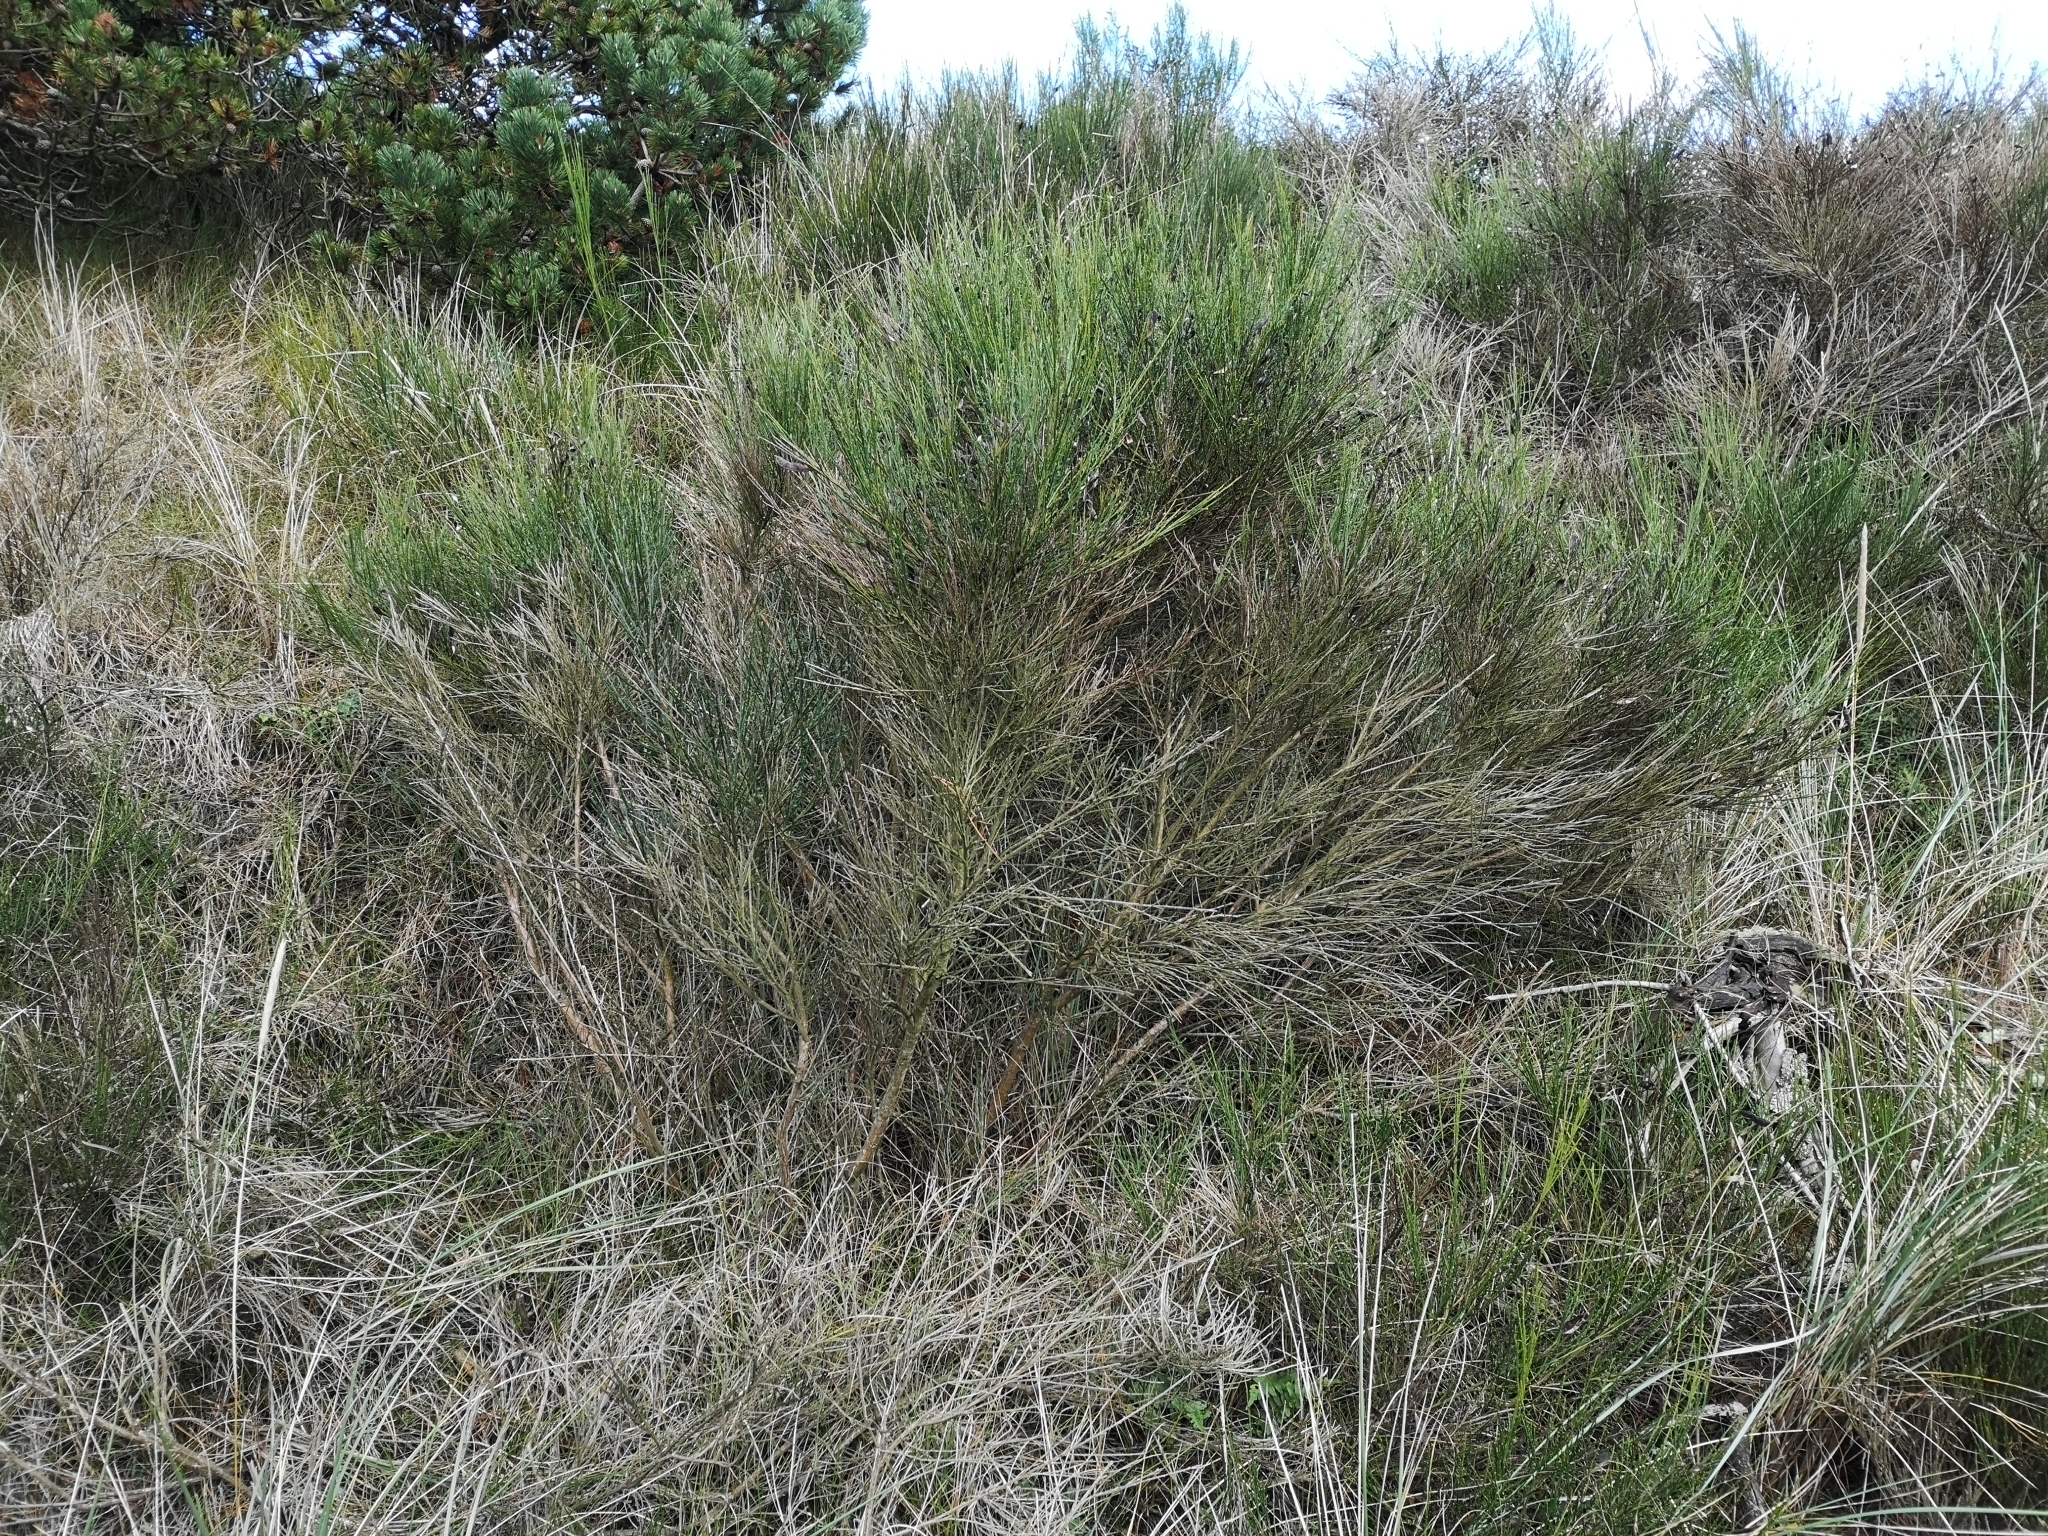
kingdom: Plantae
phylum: Tracheophyta
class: Magnoliopsida
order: Fabales
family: Fabaceae
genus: Cytisus
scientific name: Cytisus scoparius
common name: Scotch broom
